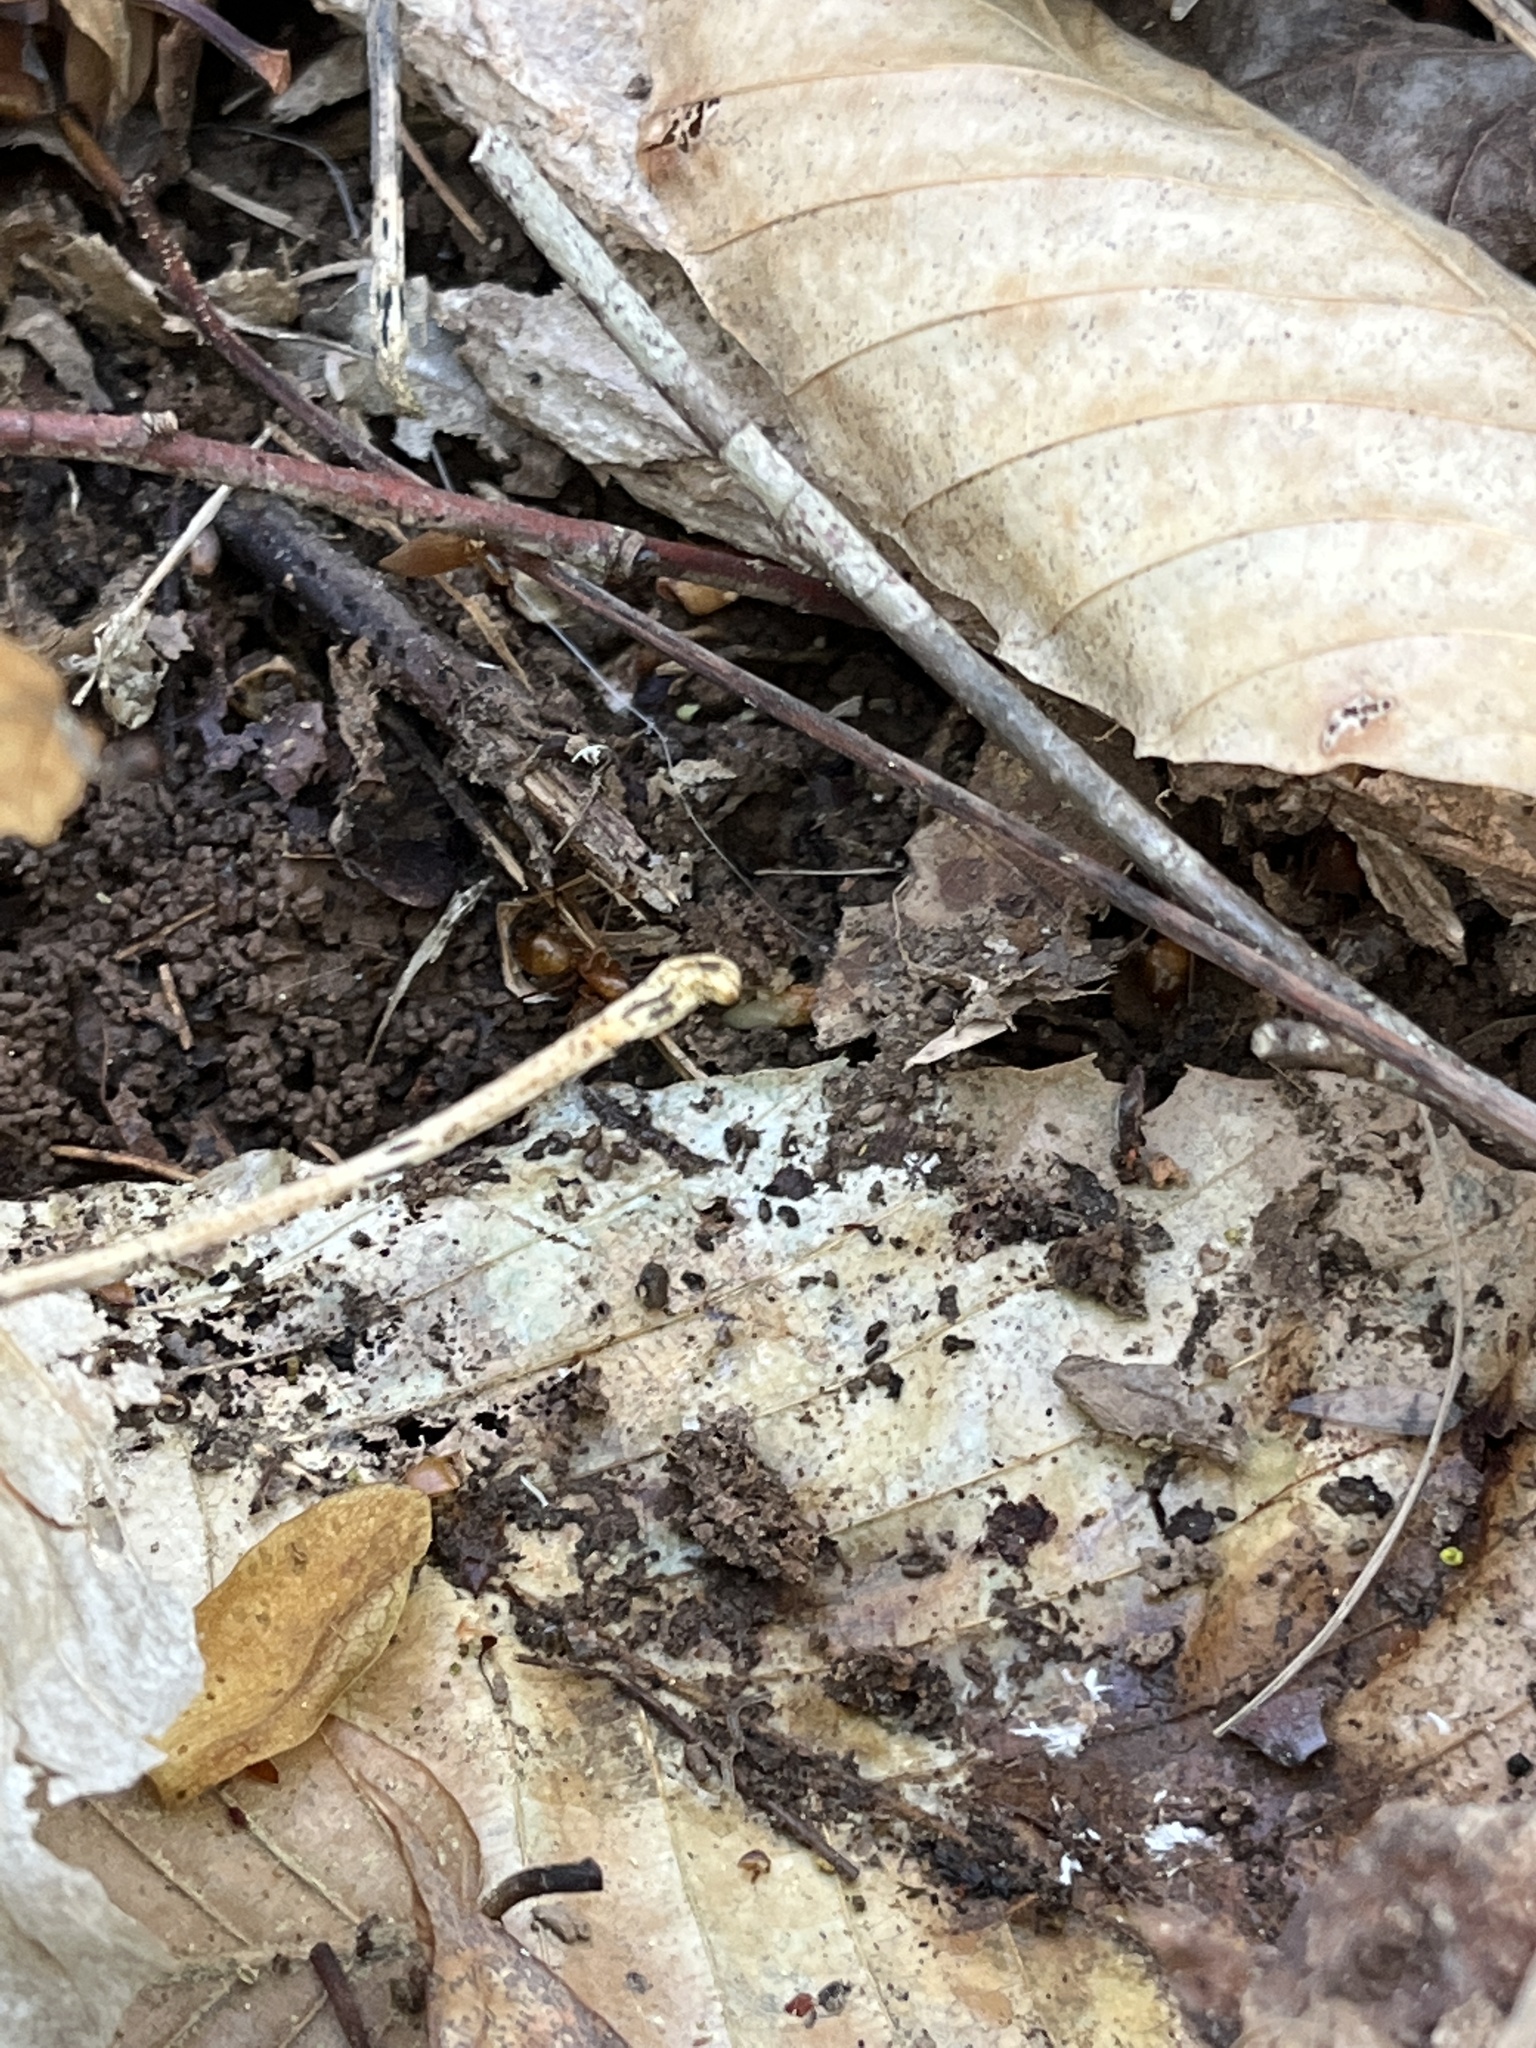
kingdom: Animalia
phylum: Arthropoda
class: Insecta
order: Hymenoptera
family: Formicidae
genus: Camponotus
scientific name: Camponotus castaneus
